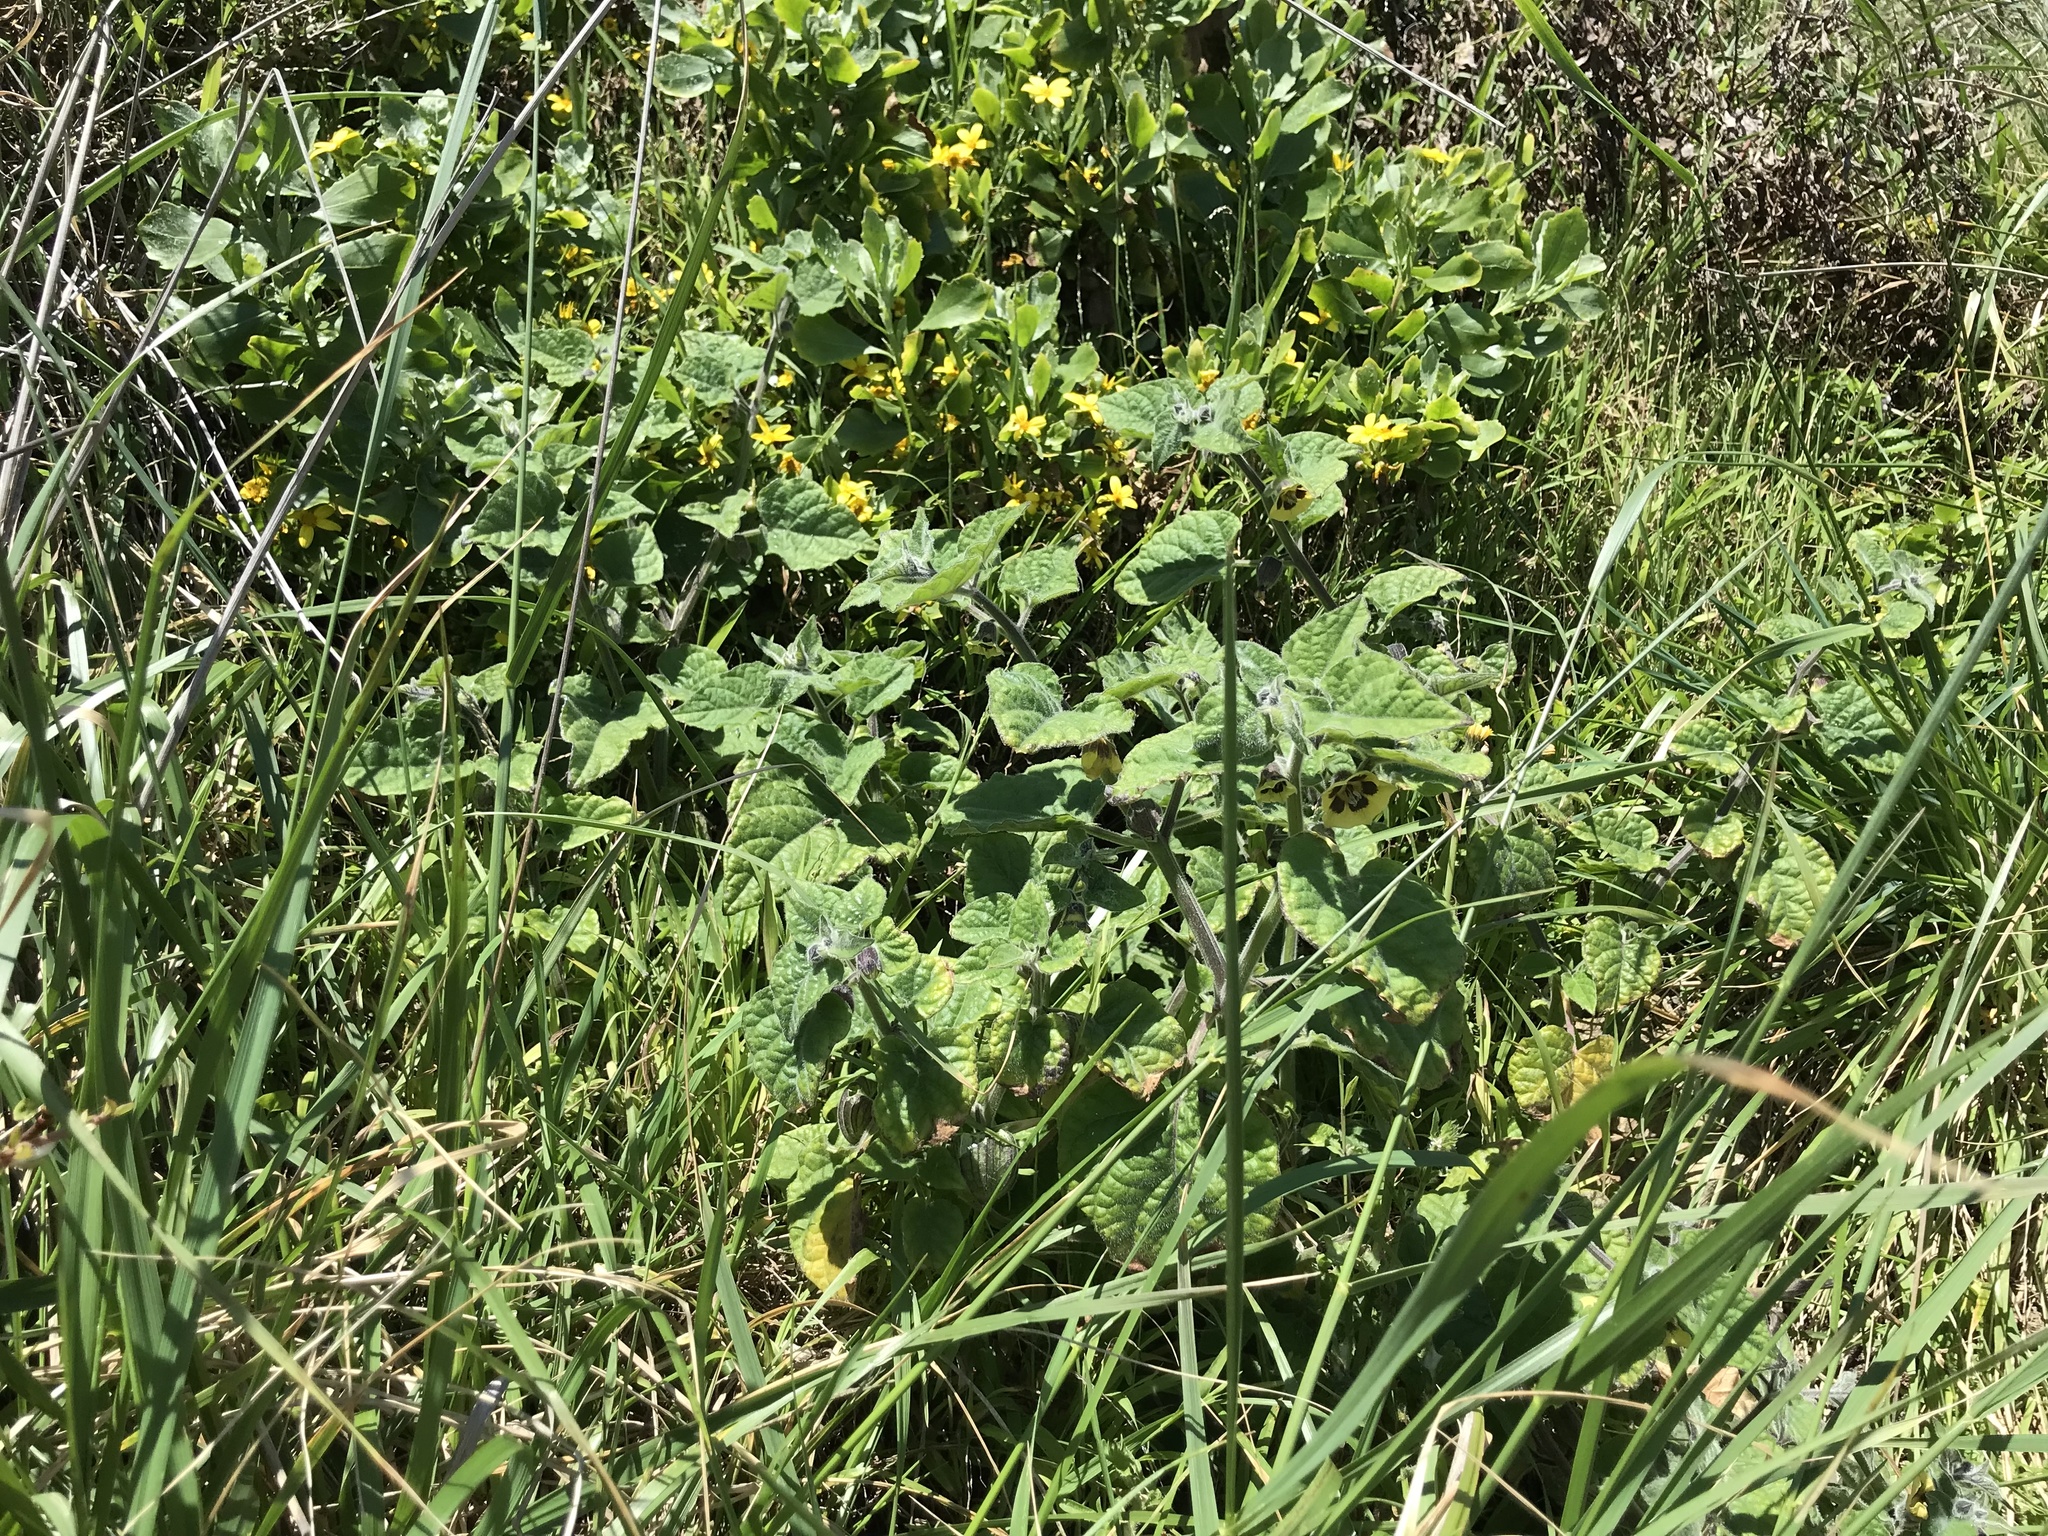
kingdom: Plantae
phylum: Tracheophyta
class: Magnoliopsida
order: Solanales
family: Solanaceae
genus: Physalis
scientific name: Physalis peruviana
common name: Cape-gooseberry
